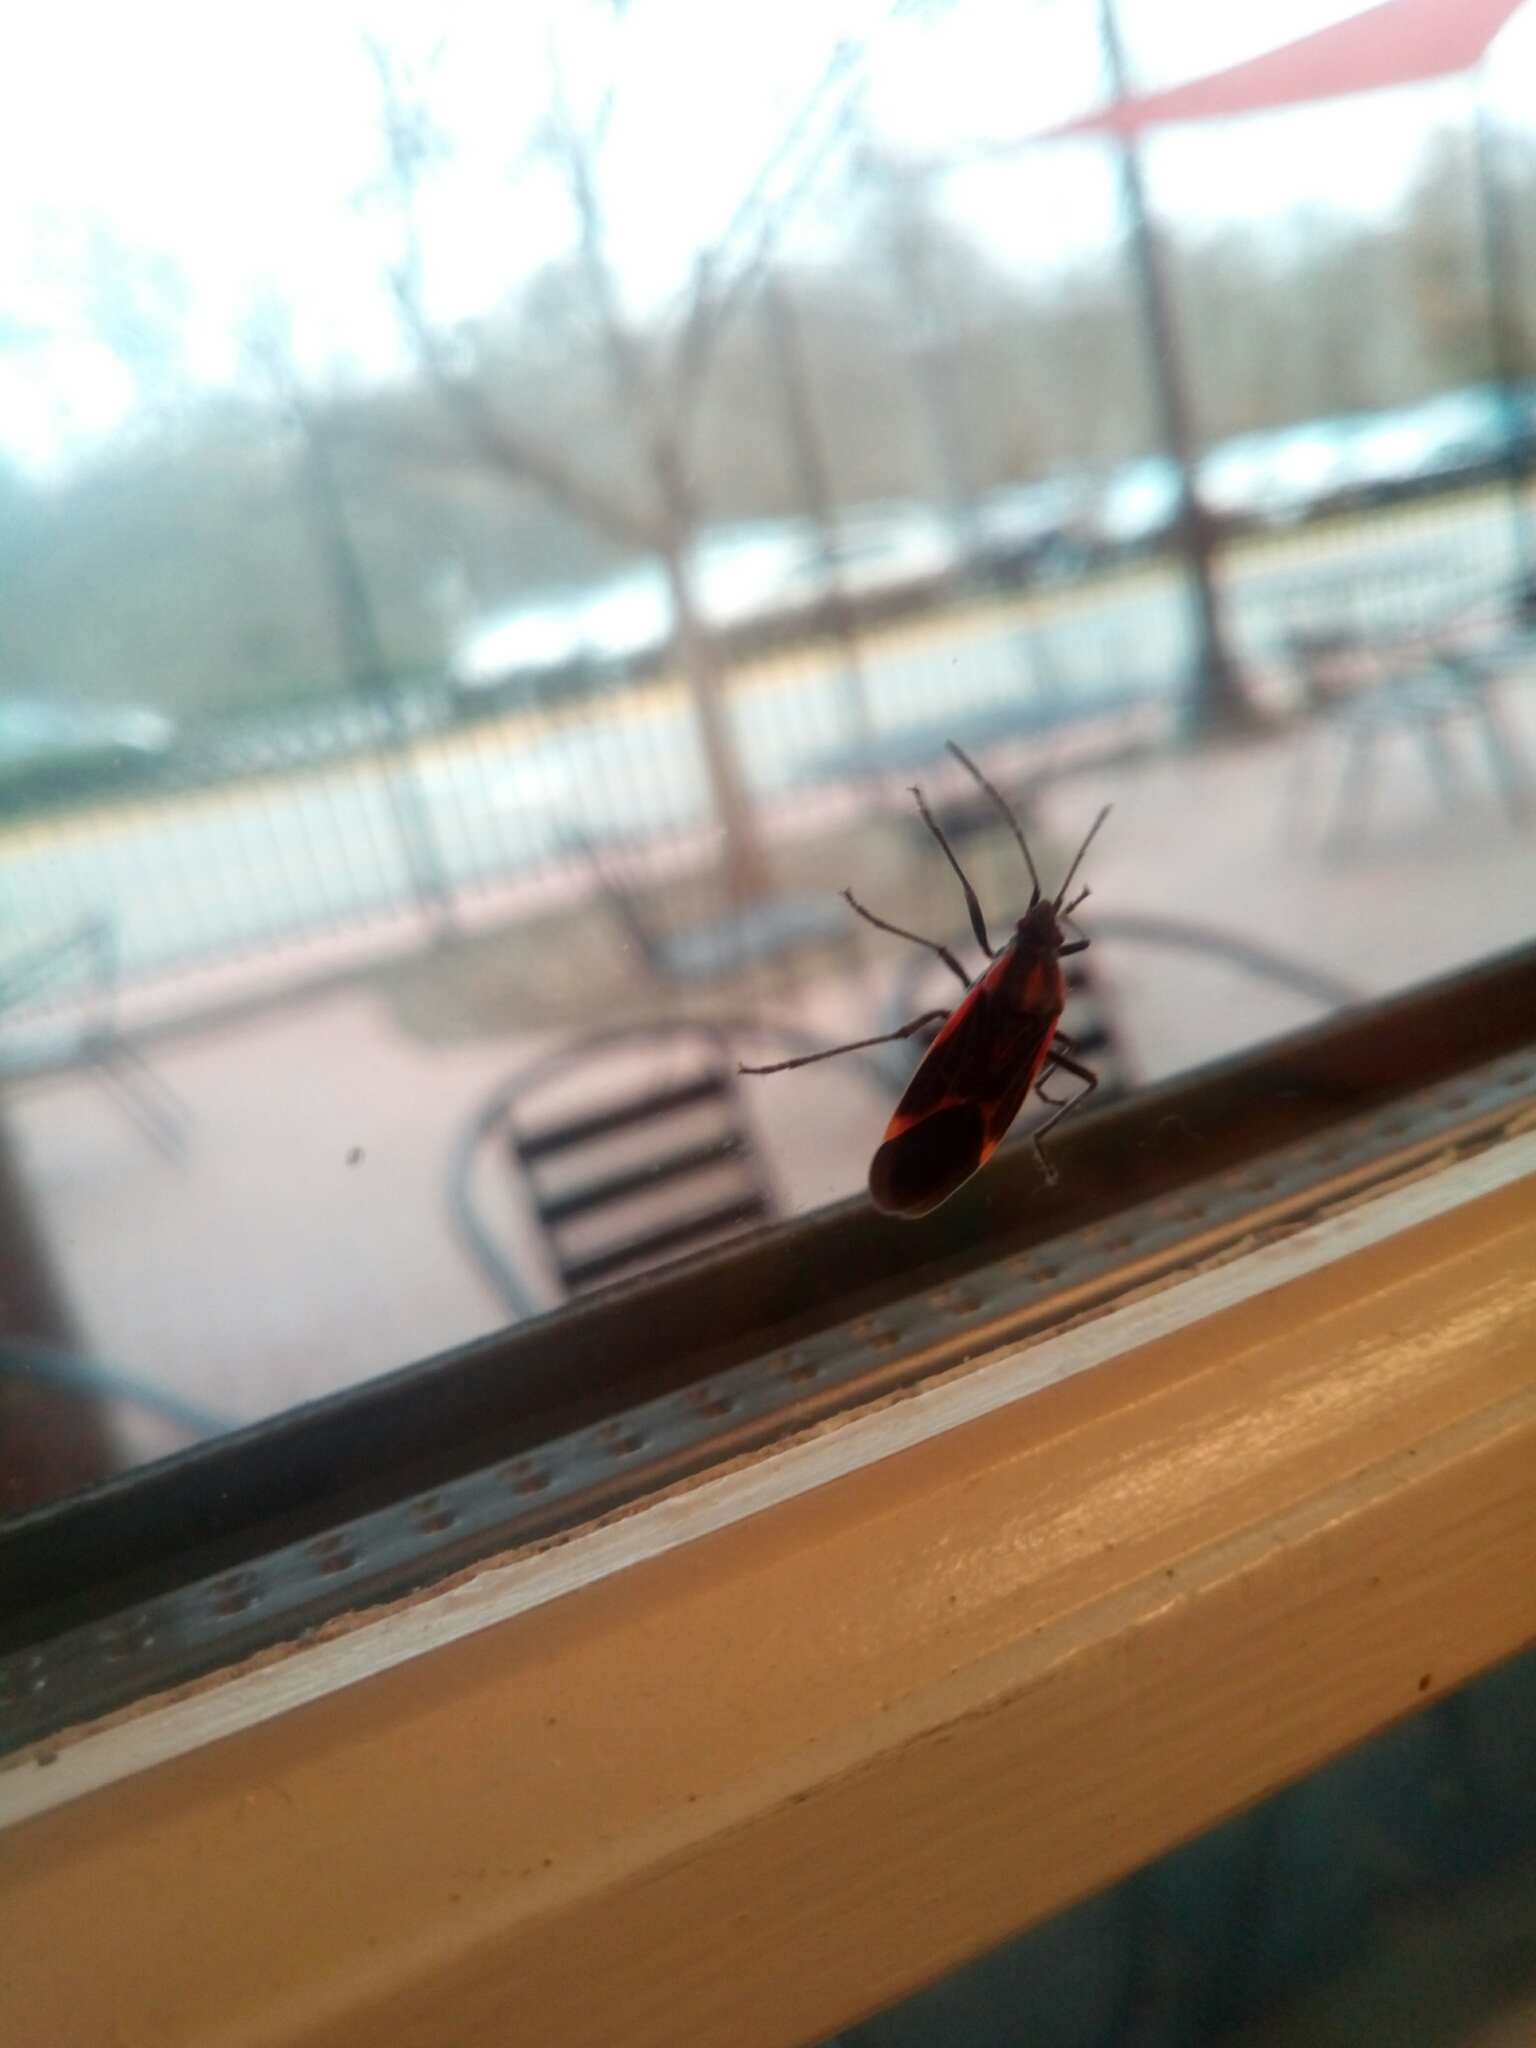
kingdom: Animalia
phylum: Arthropoda
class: Insecta
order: Hemiptera
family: Rhopalidae
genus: Boisea
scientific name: Boisea trivittata
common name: Boxelder bug
